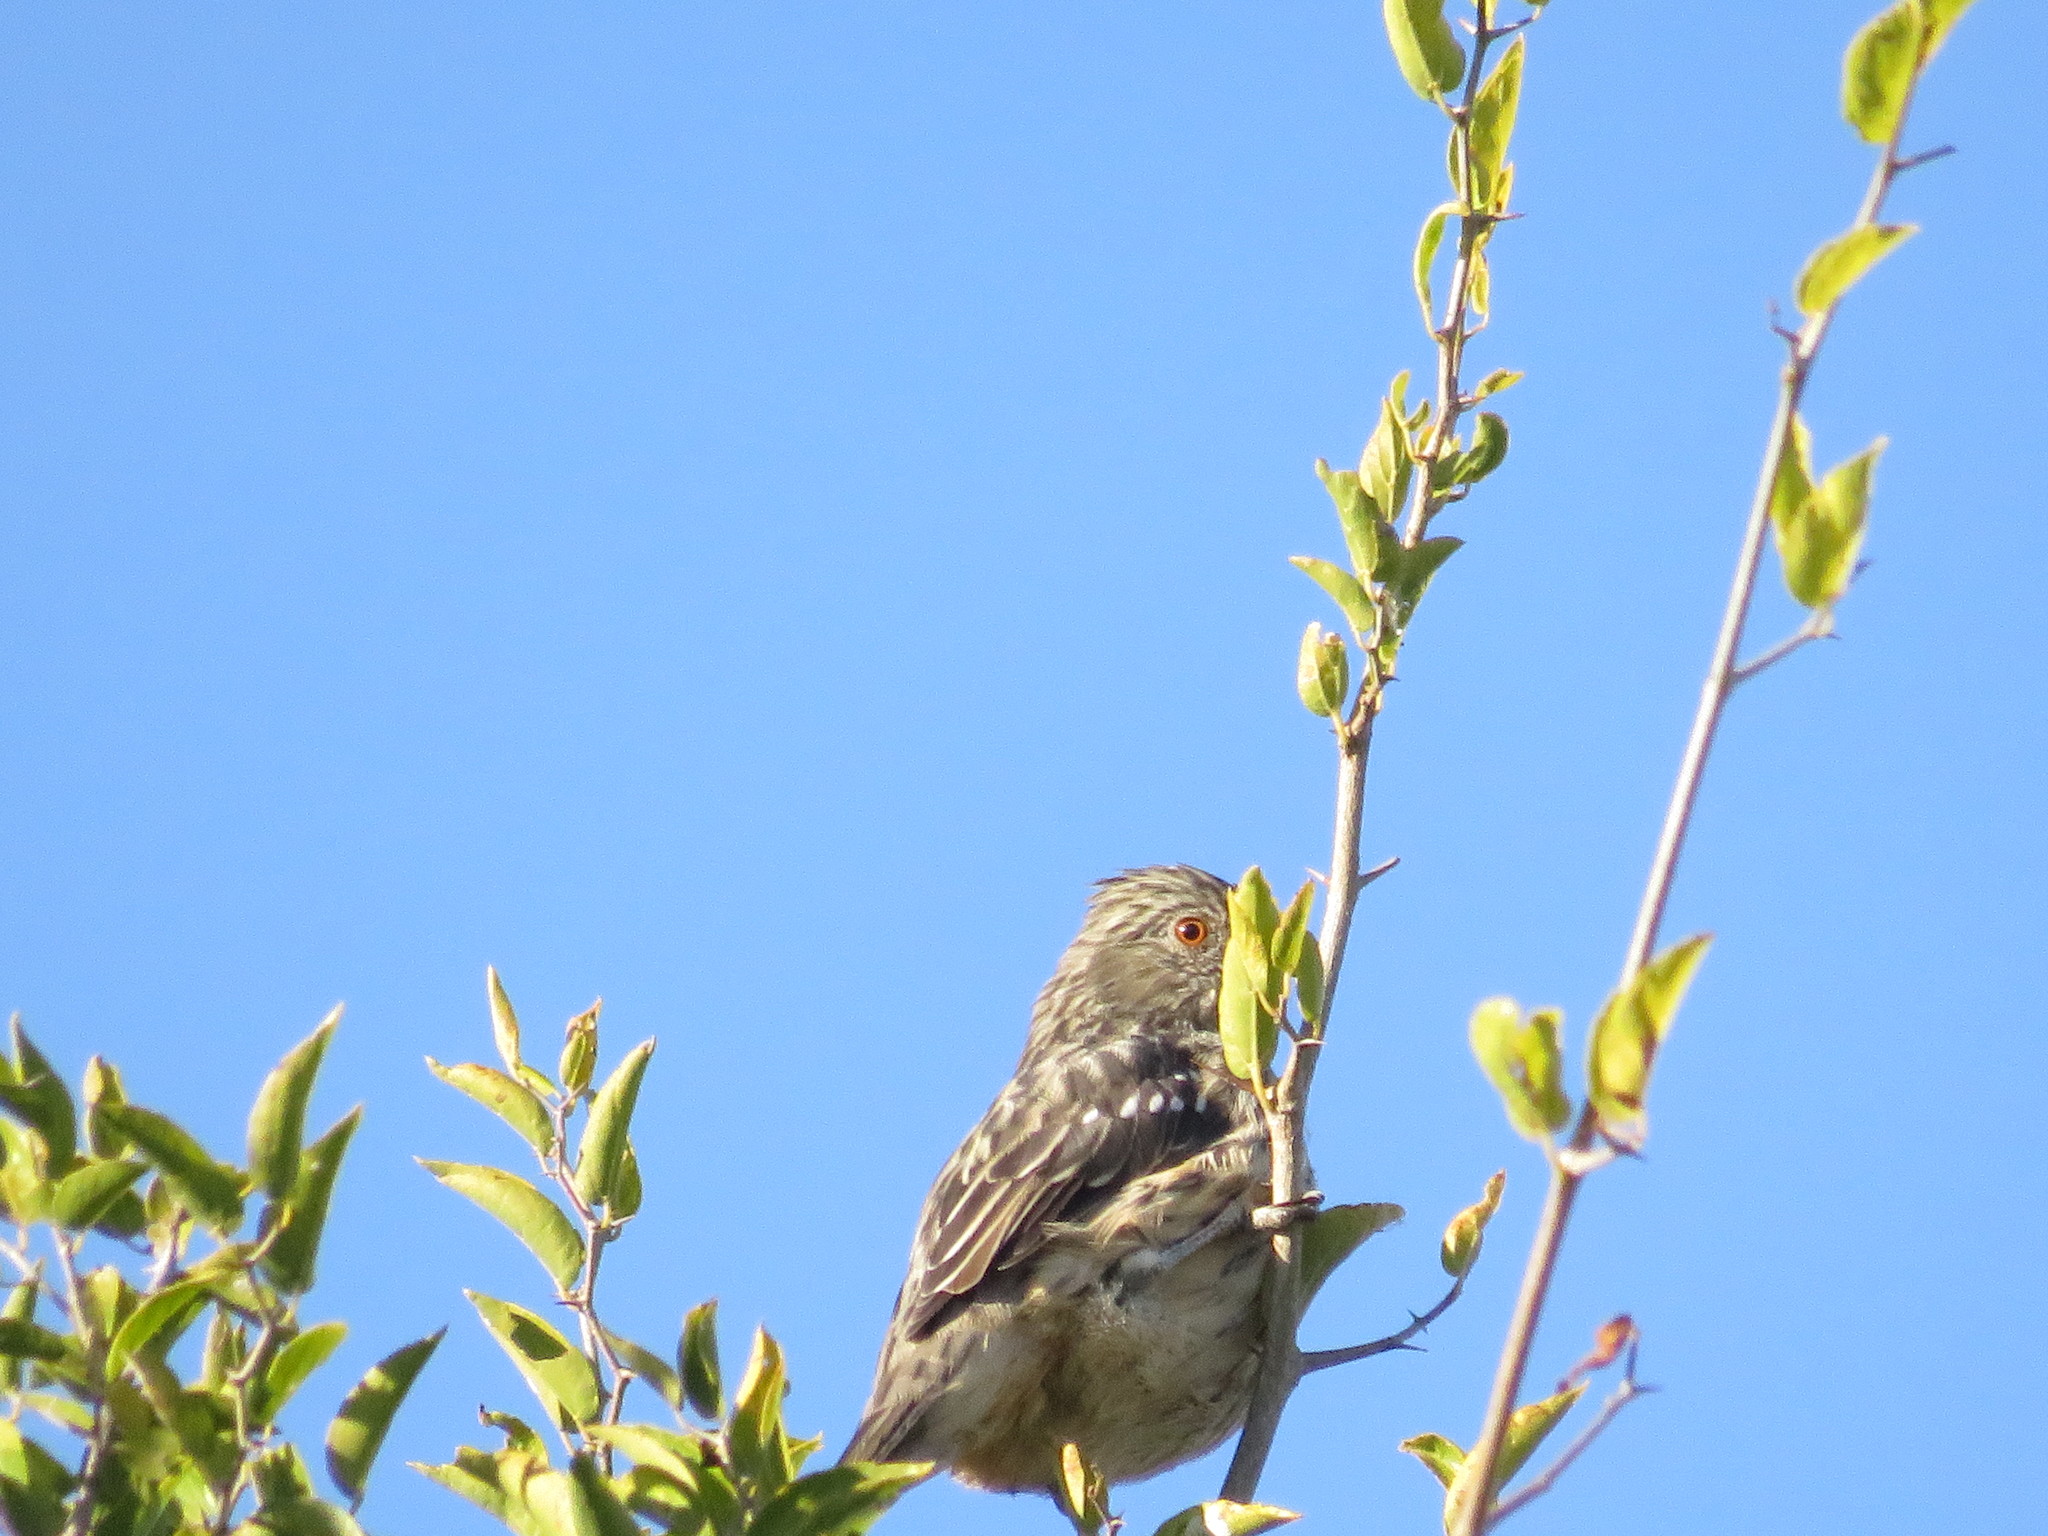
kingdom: Animalia
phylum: Chordata
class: Aves
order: Passeriformes
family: Cotingidae
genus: Phytotoma
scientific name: Phytotoma rutila
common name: White-tipped plantcutter
